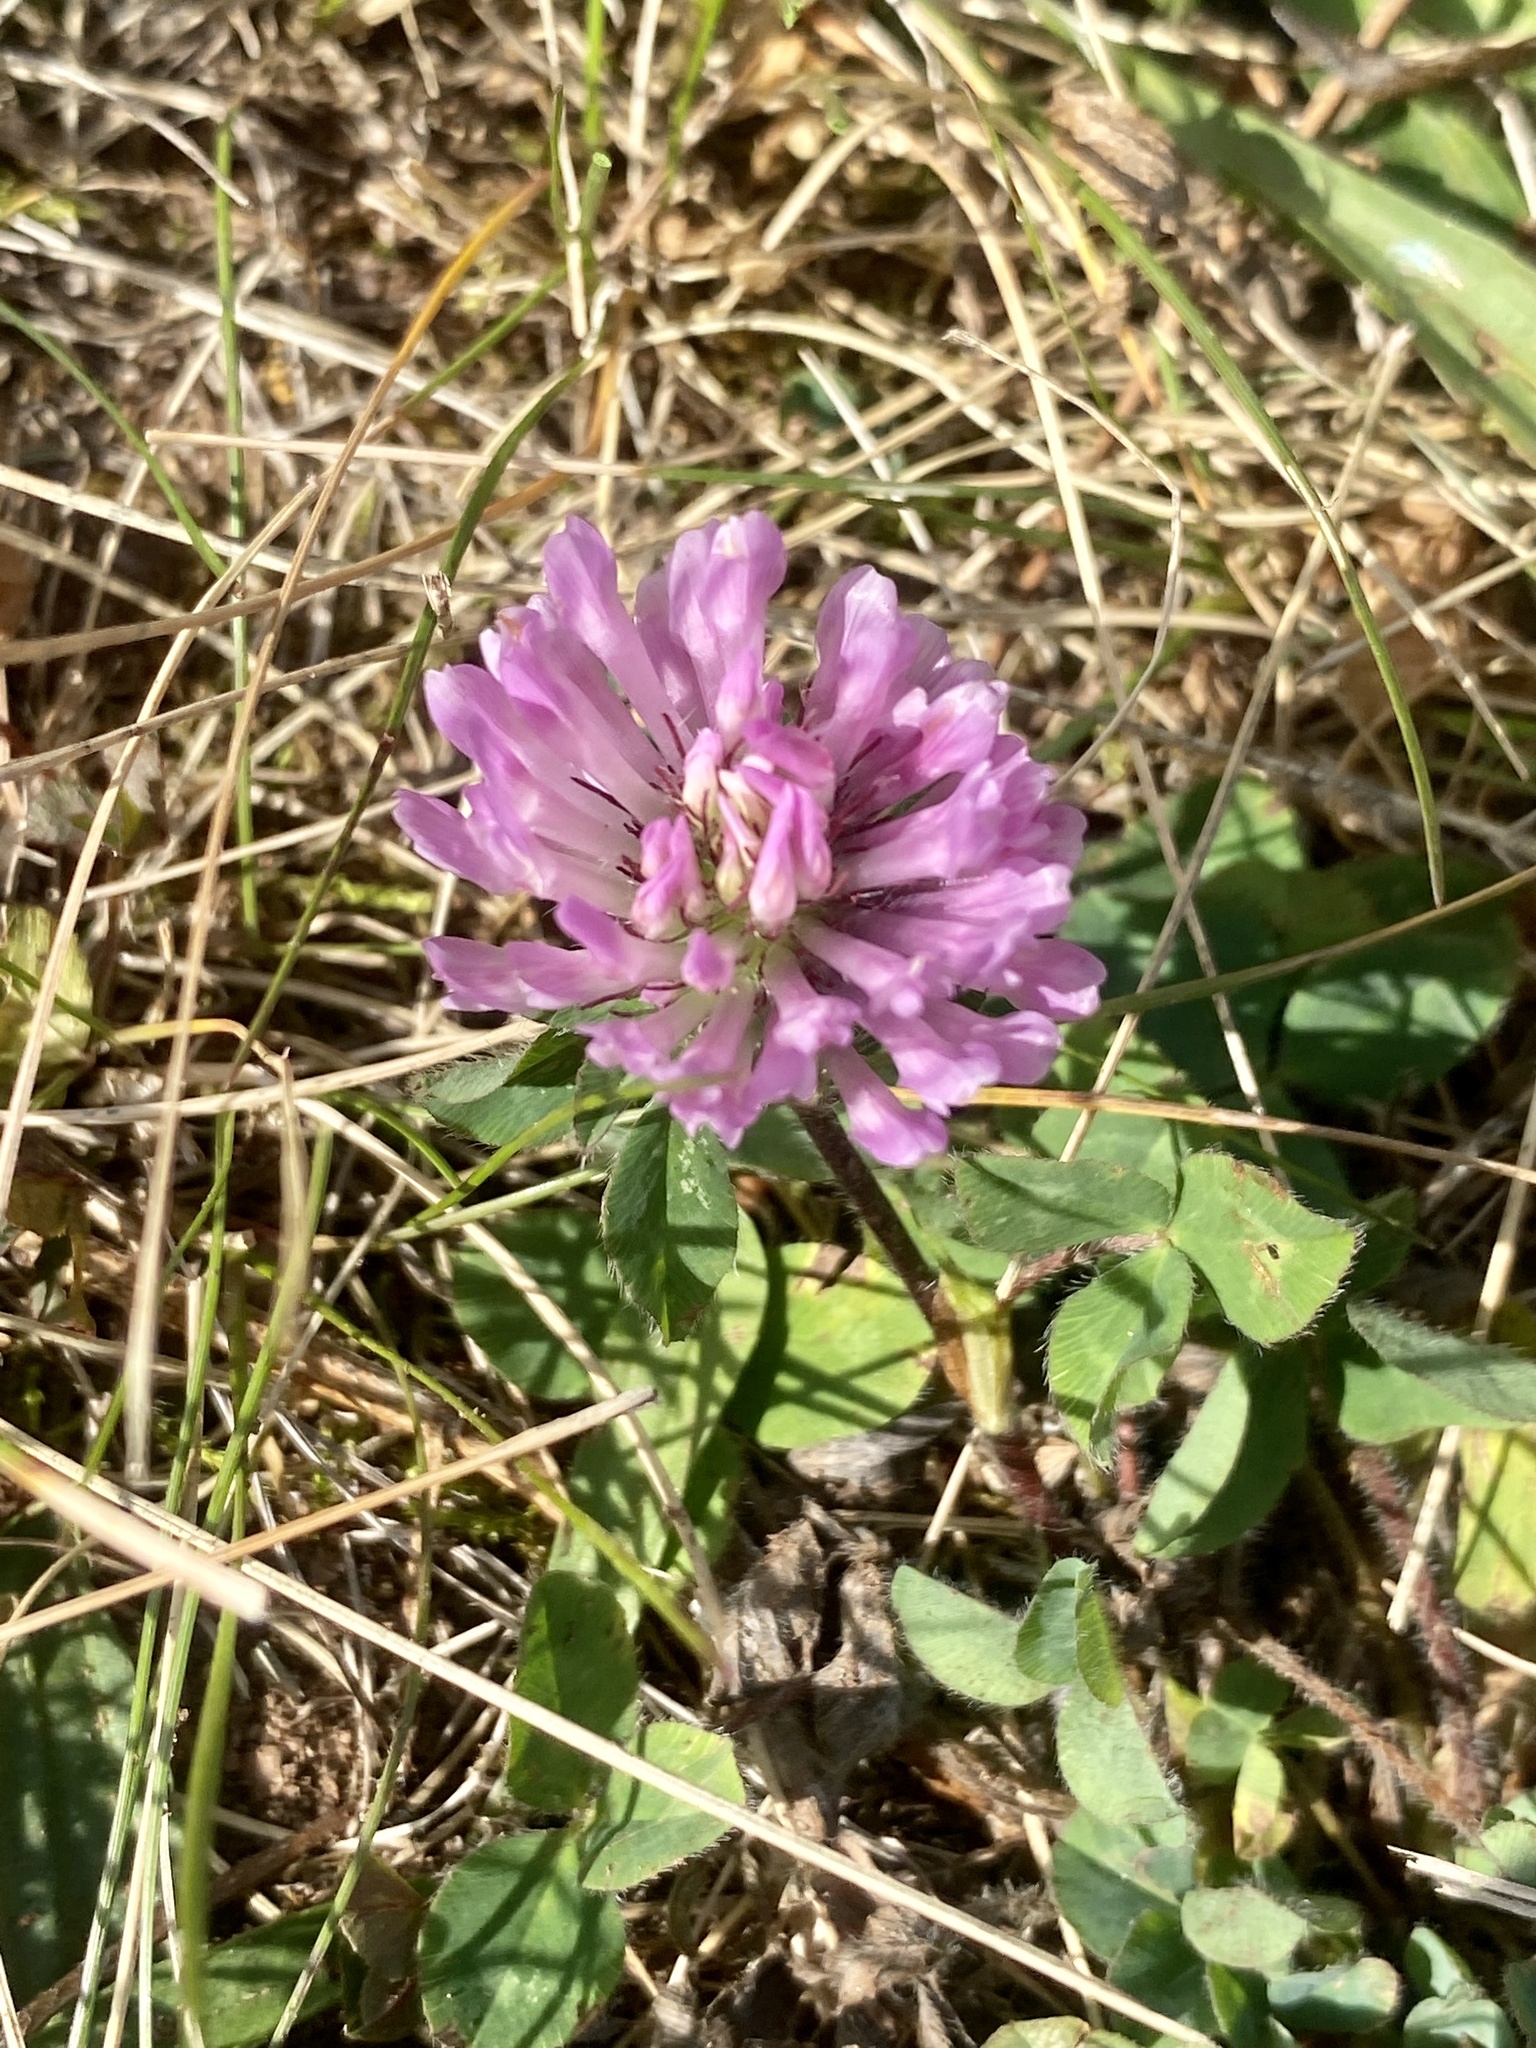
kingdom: Plantae
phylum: Tracheophyta
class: Magnoliopsida
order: Fabales
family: Fabaceae
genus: Trifolium
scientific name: Trifolium pratense
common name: Red clover
